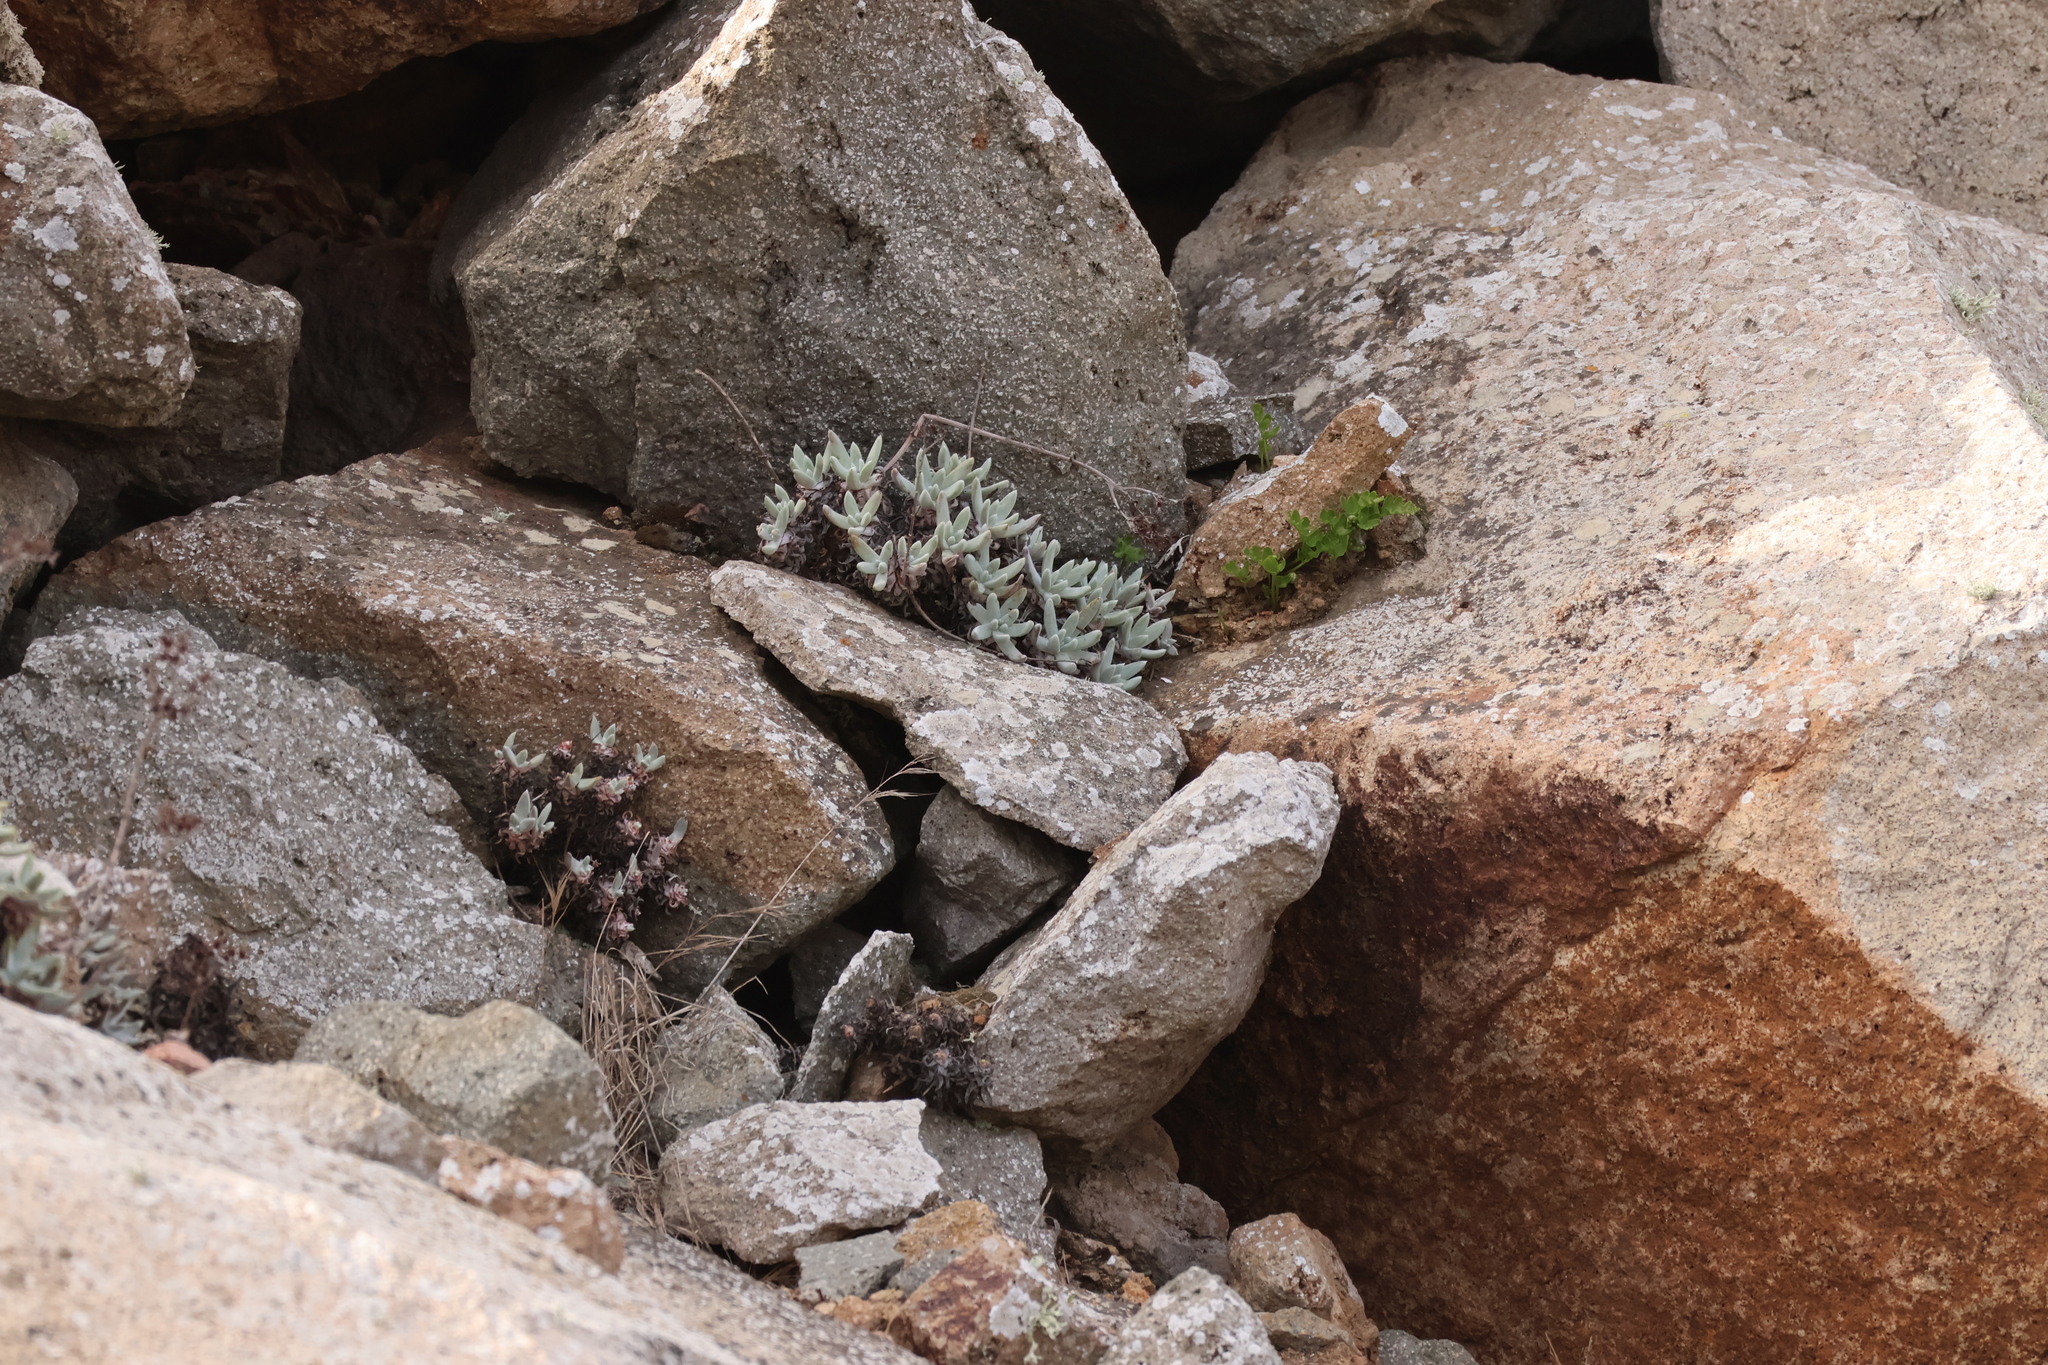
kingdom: Plantae
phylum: Tracheophyta
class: Magnoliopsida
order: Saxifragales
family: Crassulaceae
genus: Dudleya
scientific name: Dudleya caespitosa
